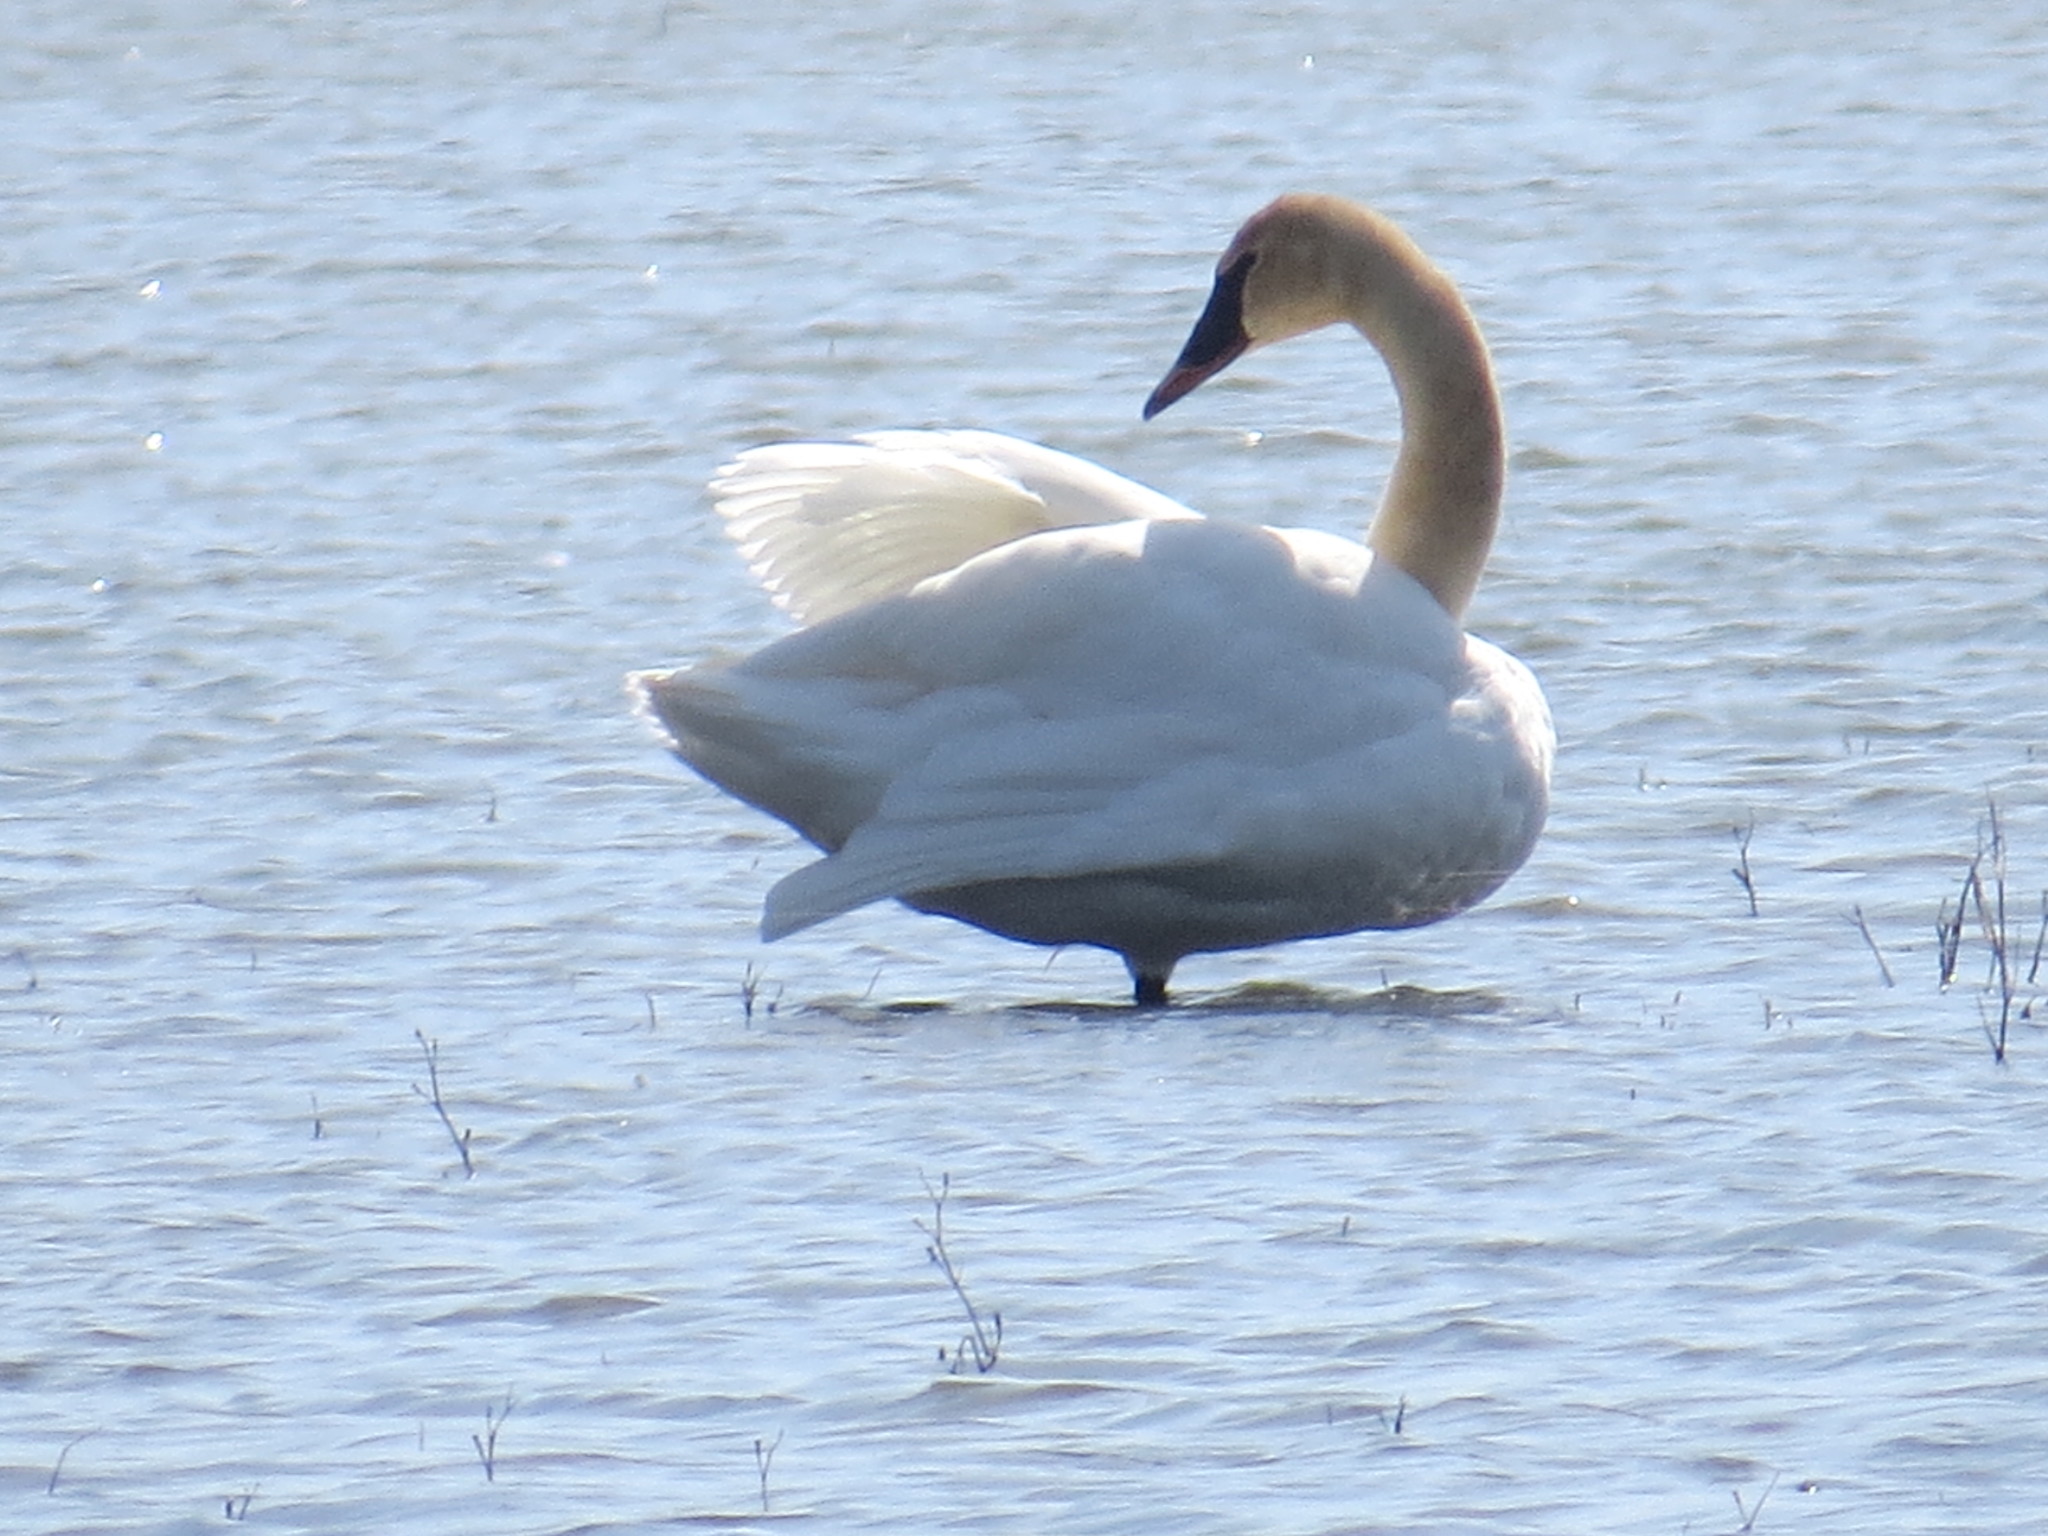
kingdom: Animalia
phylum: Chordata
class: Aves
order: Anseriformes
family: Anatidae
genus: Cygnus
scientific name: Cygnus buccinator
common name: Trumpeter swan
